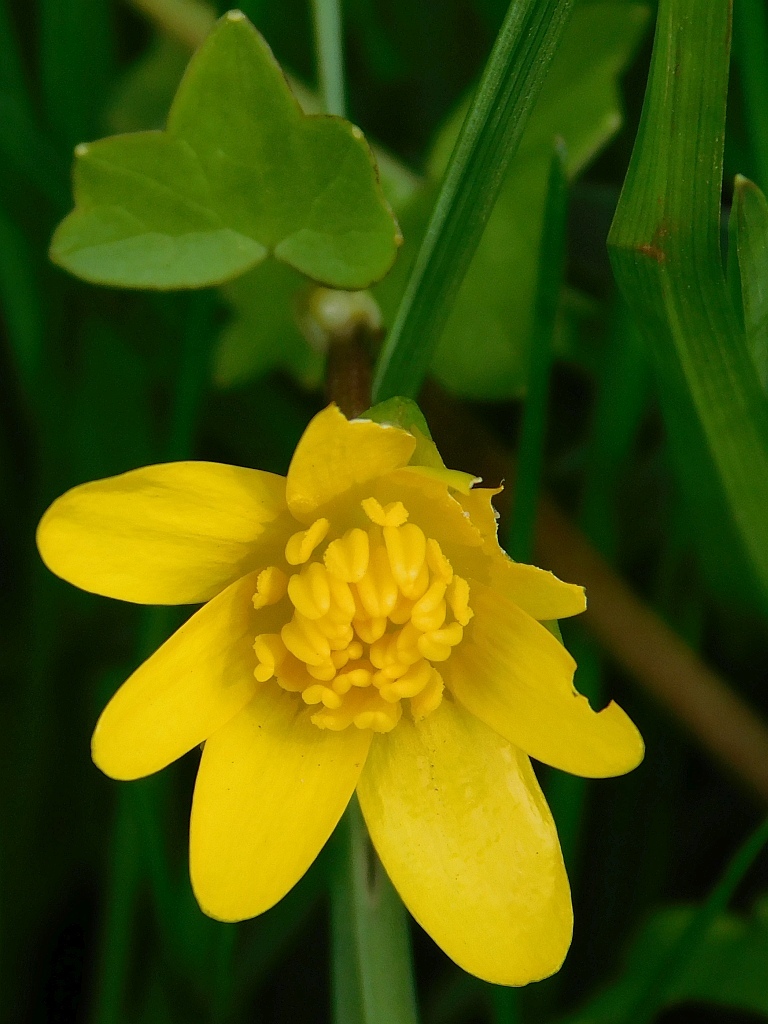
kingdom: Plantae
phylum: Tracheophyta
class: Magnoliopsida
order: Ranunculales
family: Ranunculaceae
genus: Ficaria
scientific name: Ficaria verna
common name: Lesser celandine
